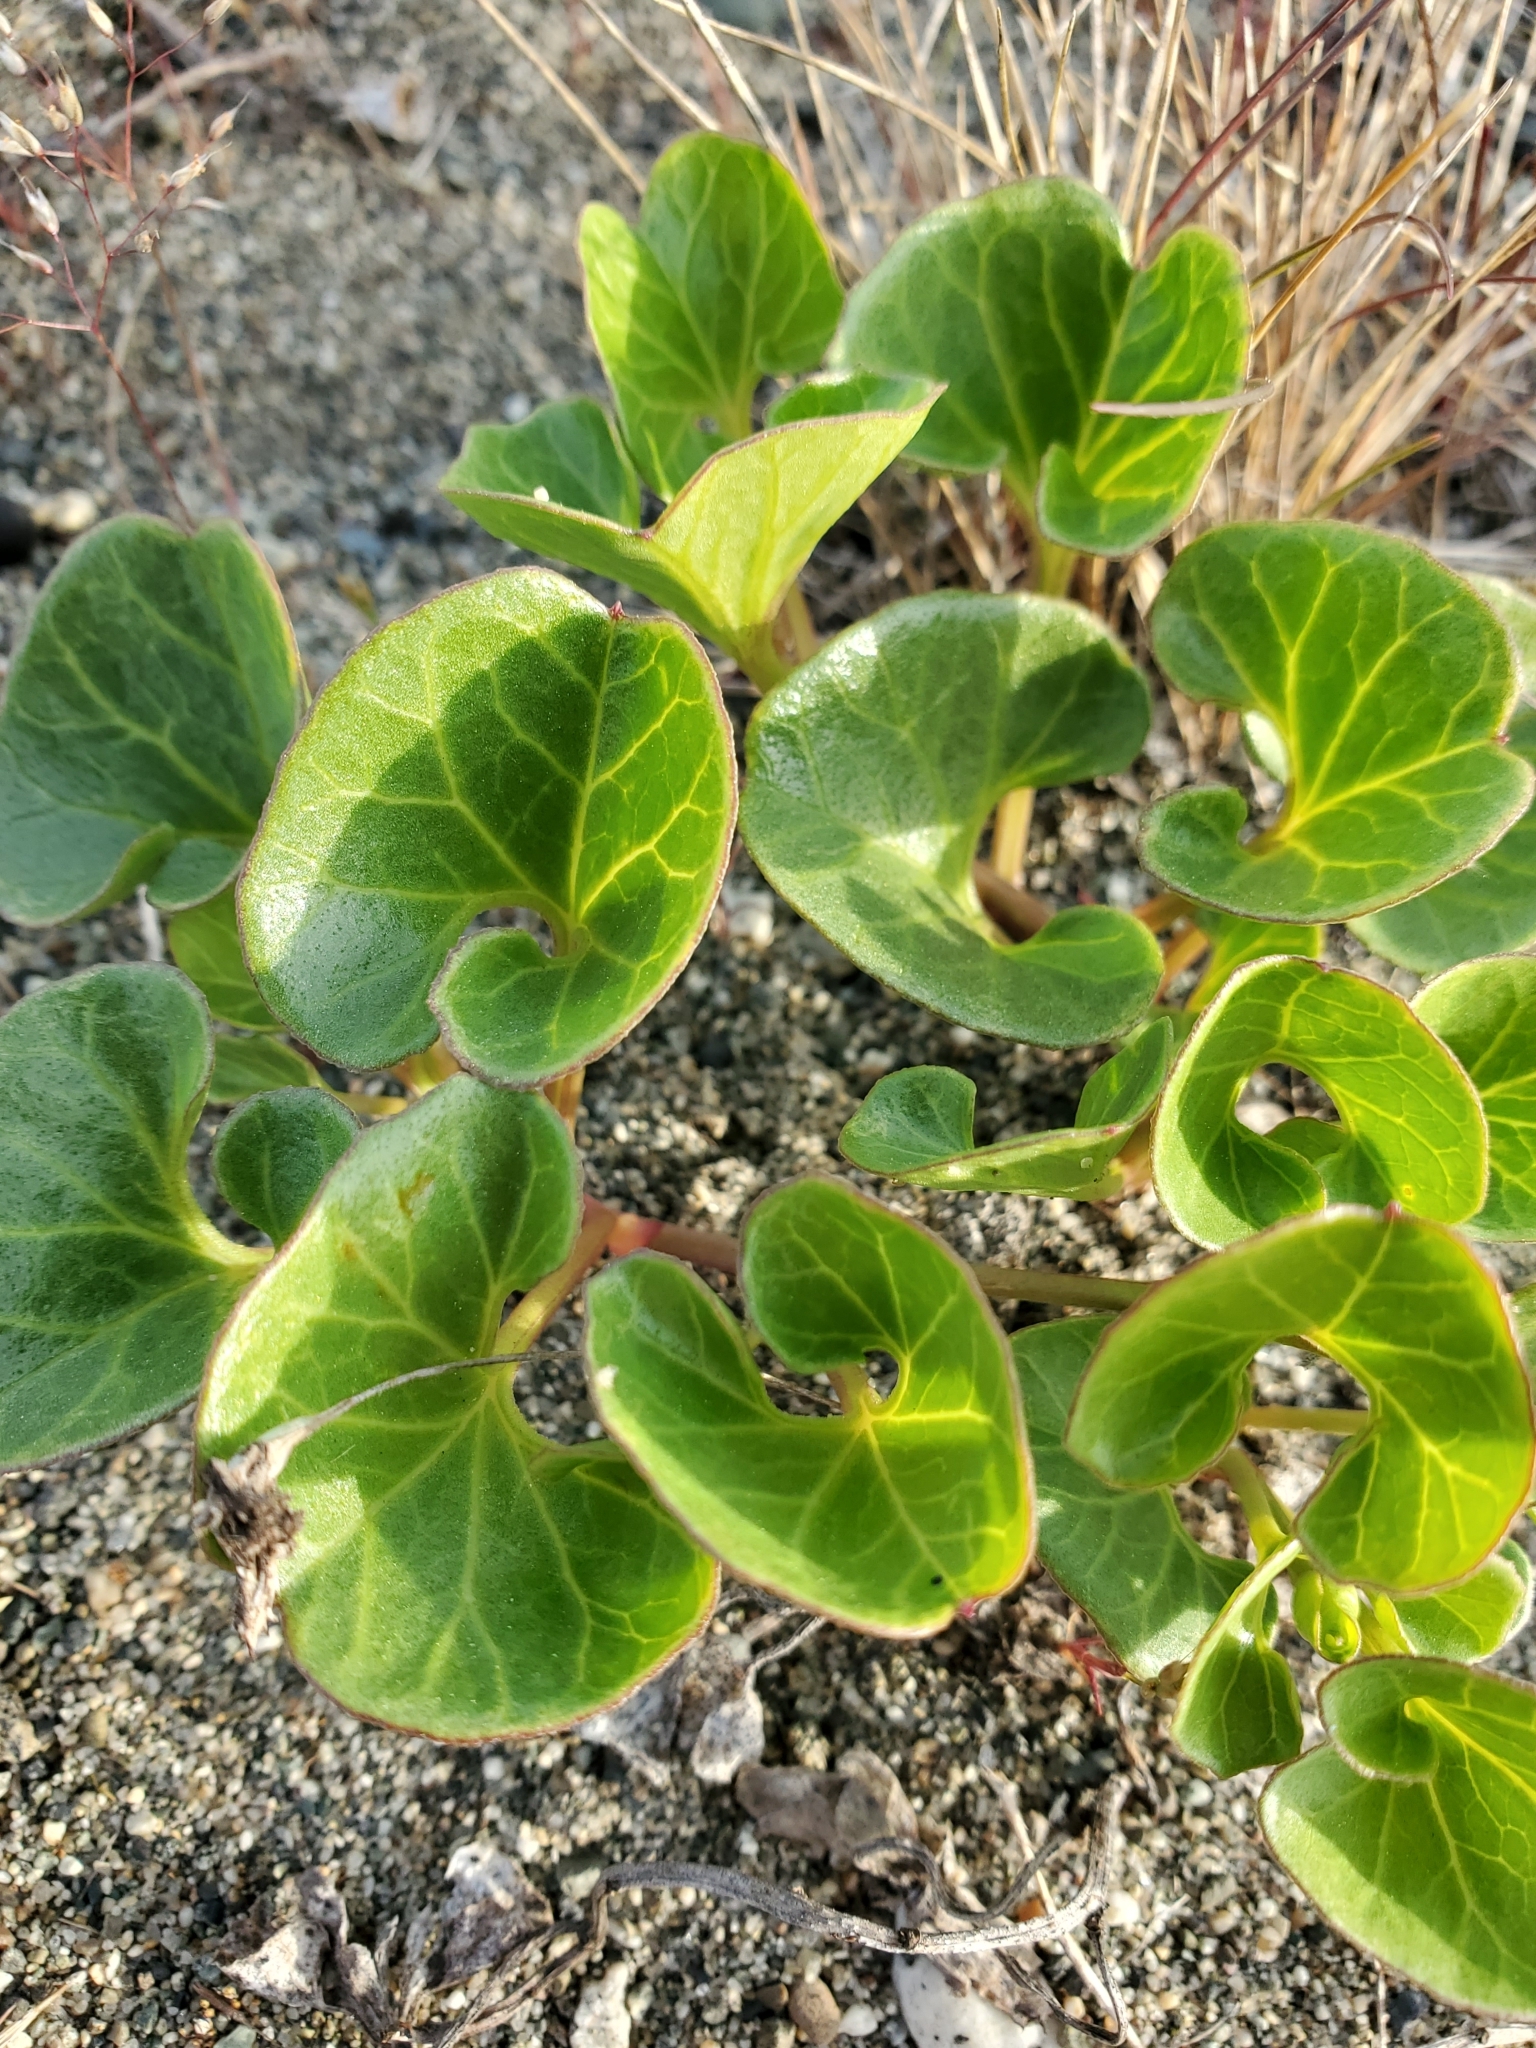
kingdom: Plantae
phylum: Tracheophyta
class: Magnoliopsida
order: Solanales
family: Convolvulaceae
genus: Calystegia
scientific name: Calystegia soldanella
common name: Sea bindweed
